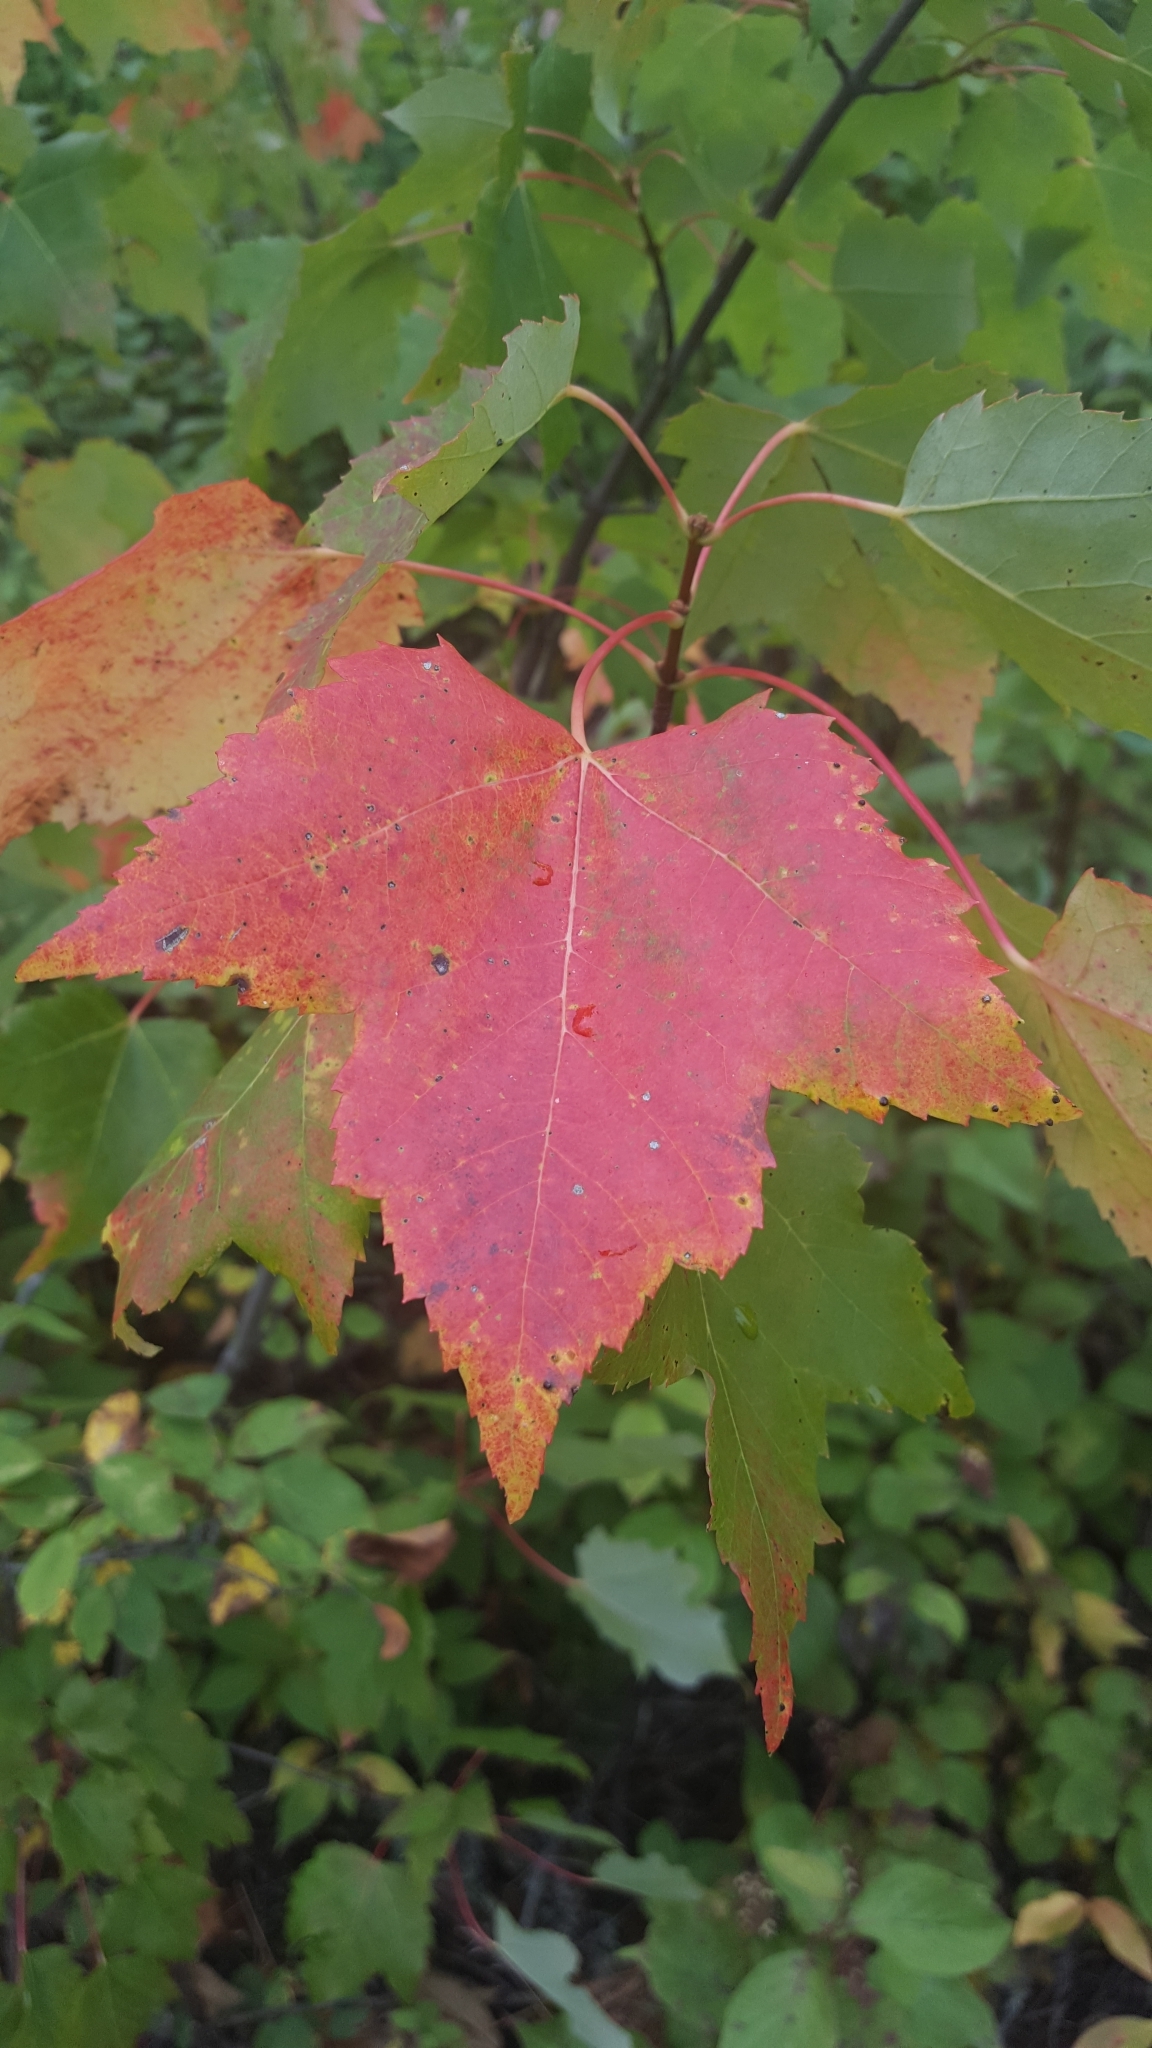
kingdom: Plantae
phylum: Tracheophyta
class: Magnoliopsida
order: Sapindales
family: Sapindaceae
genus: Acer
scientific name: Acer rubrum
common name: Red maple
